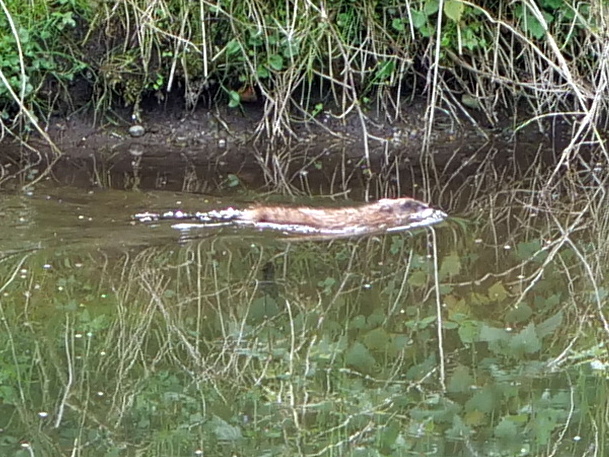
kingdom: Animalia
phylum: Chordata
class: Mammalia
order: Rodentia
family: Cricetidae
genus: Ondatra
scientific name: Ondatra zibethicus
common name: Muskrat
